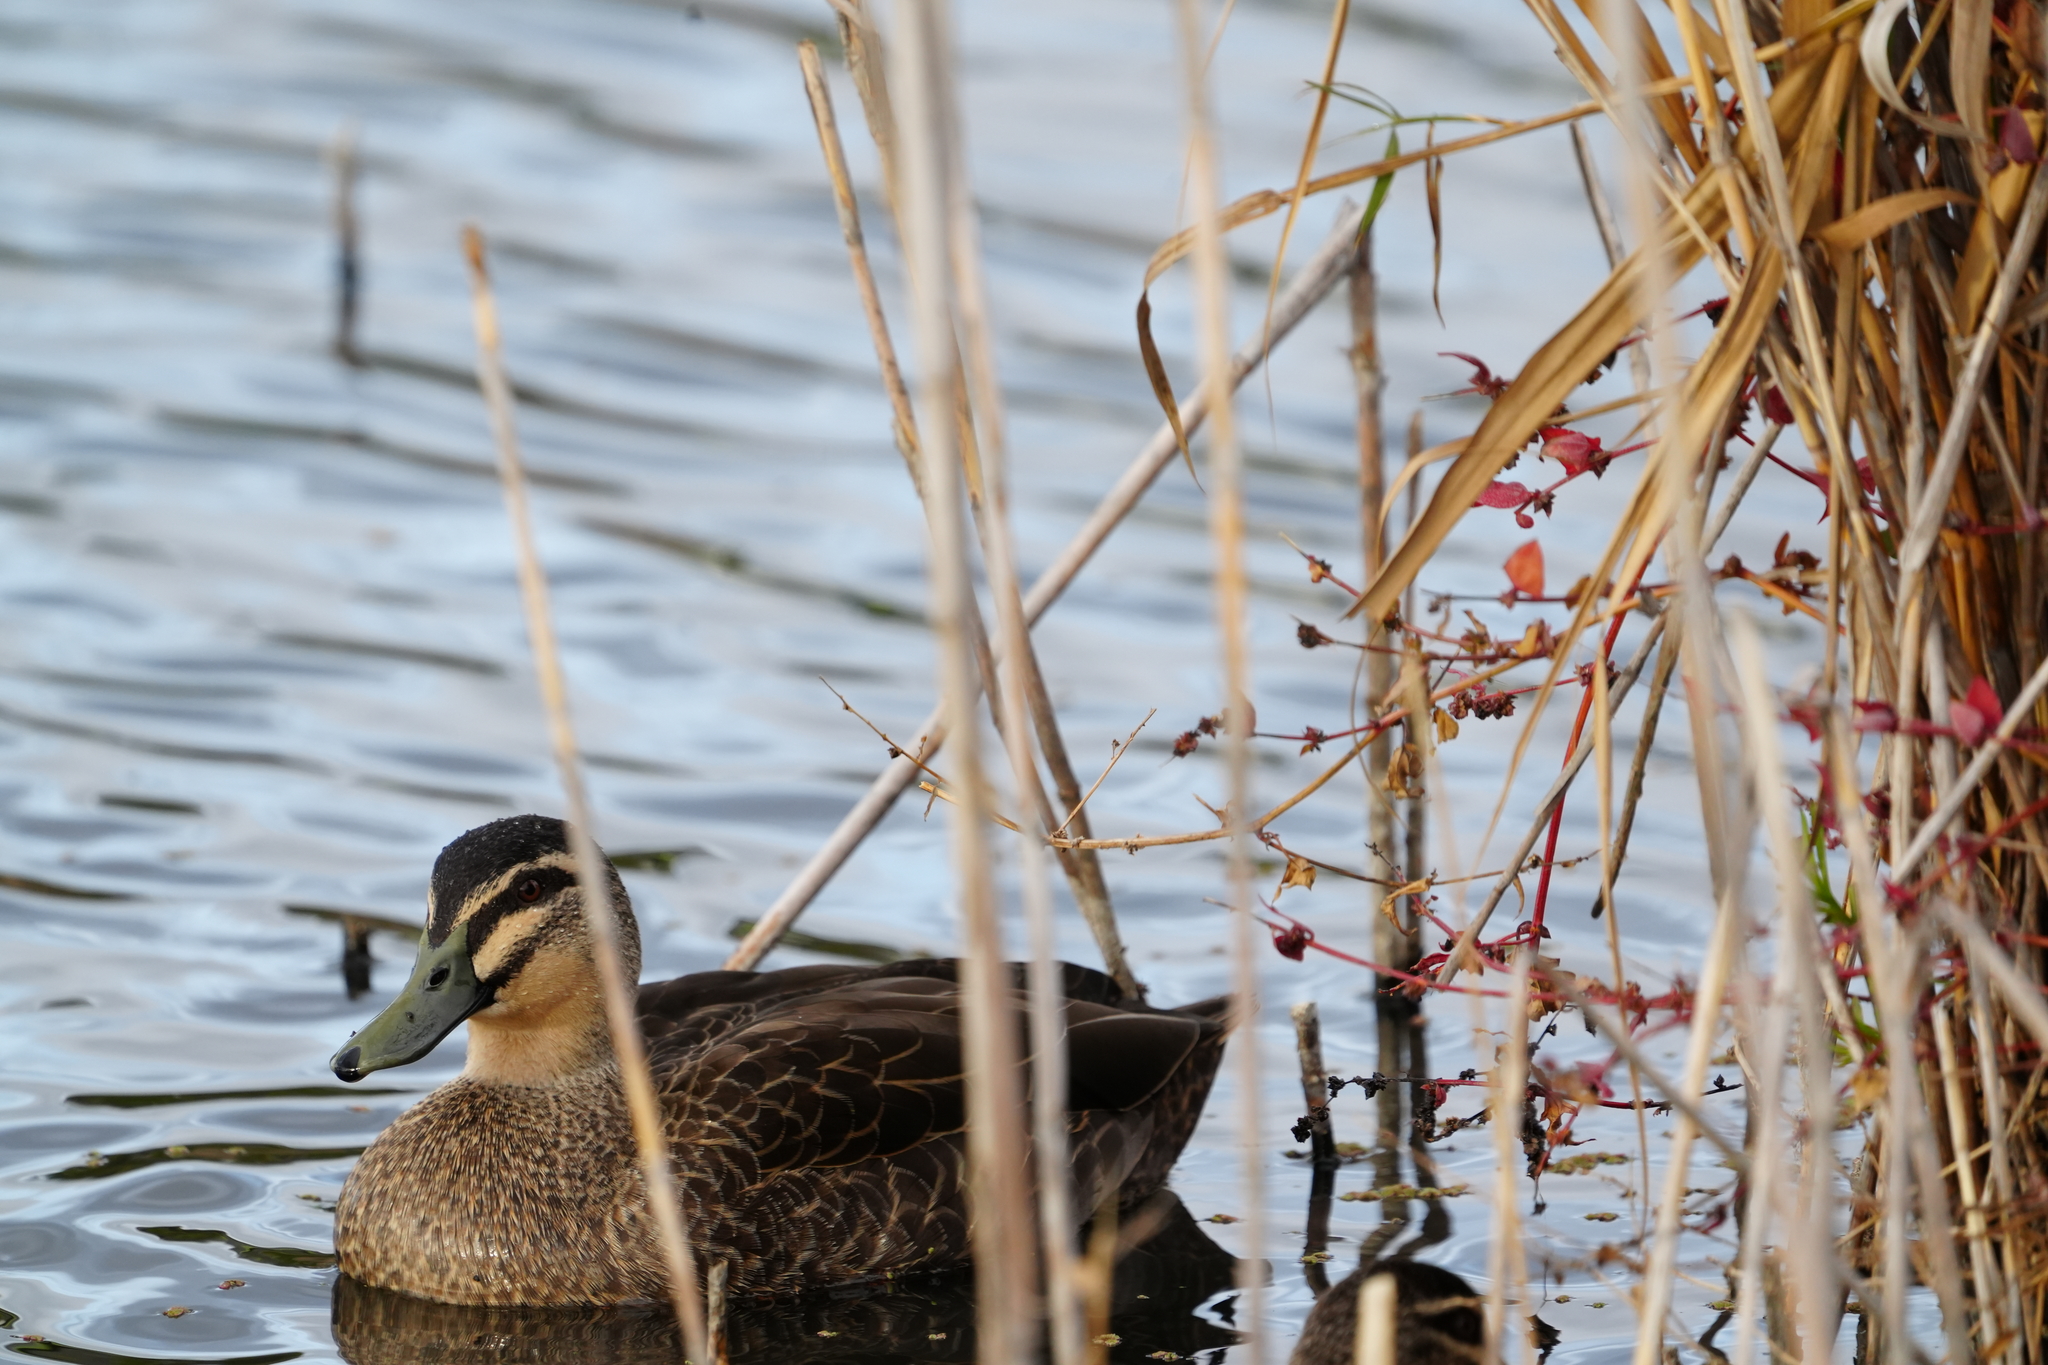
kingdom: Animalia
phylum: Chordata
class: Aves
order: Anseriformes
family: Anatidae
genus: Anas
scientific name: Anas superciliosa
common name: Pacific black duck
